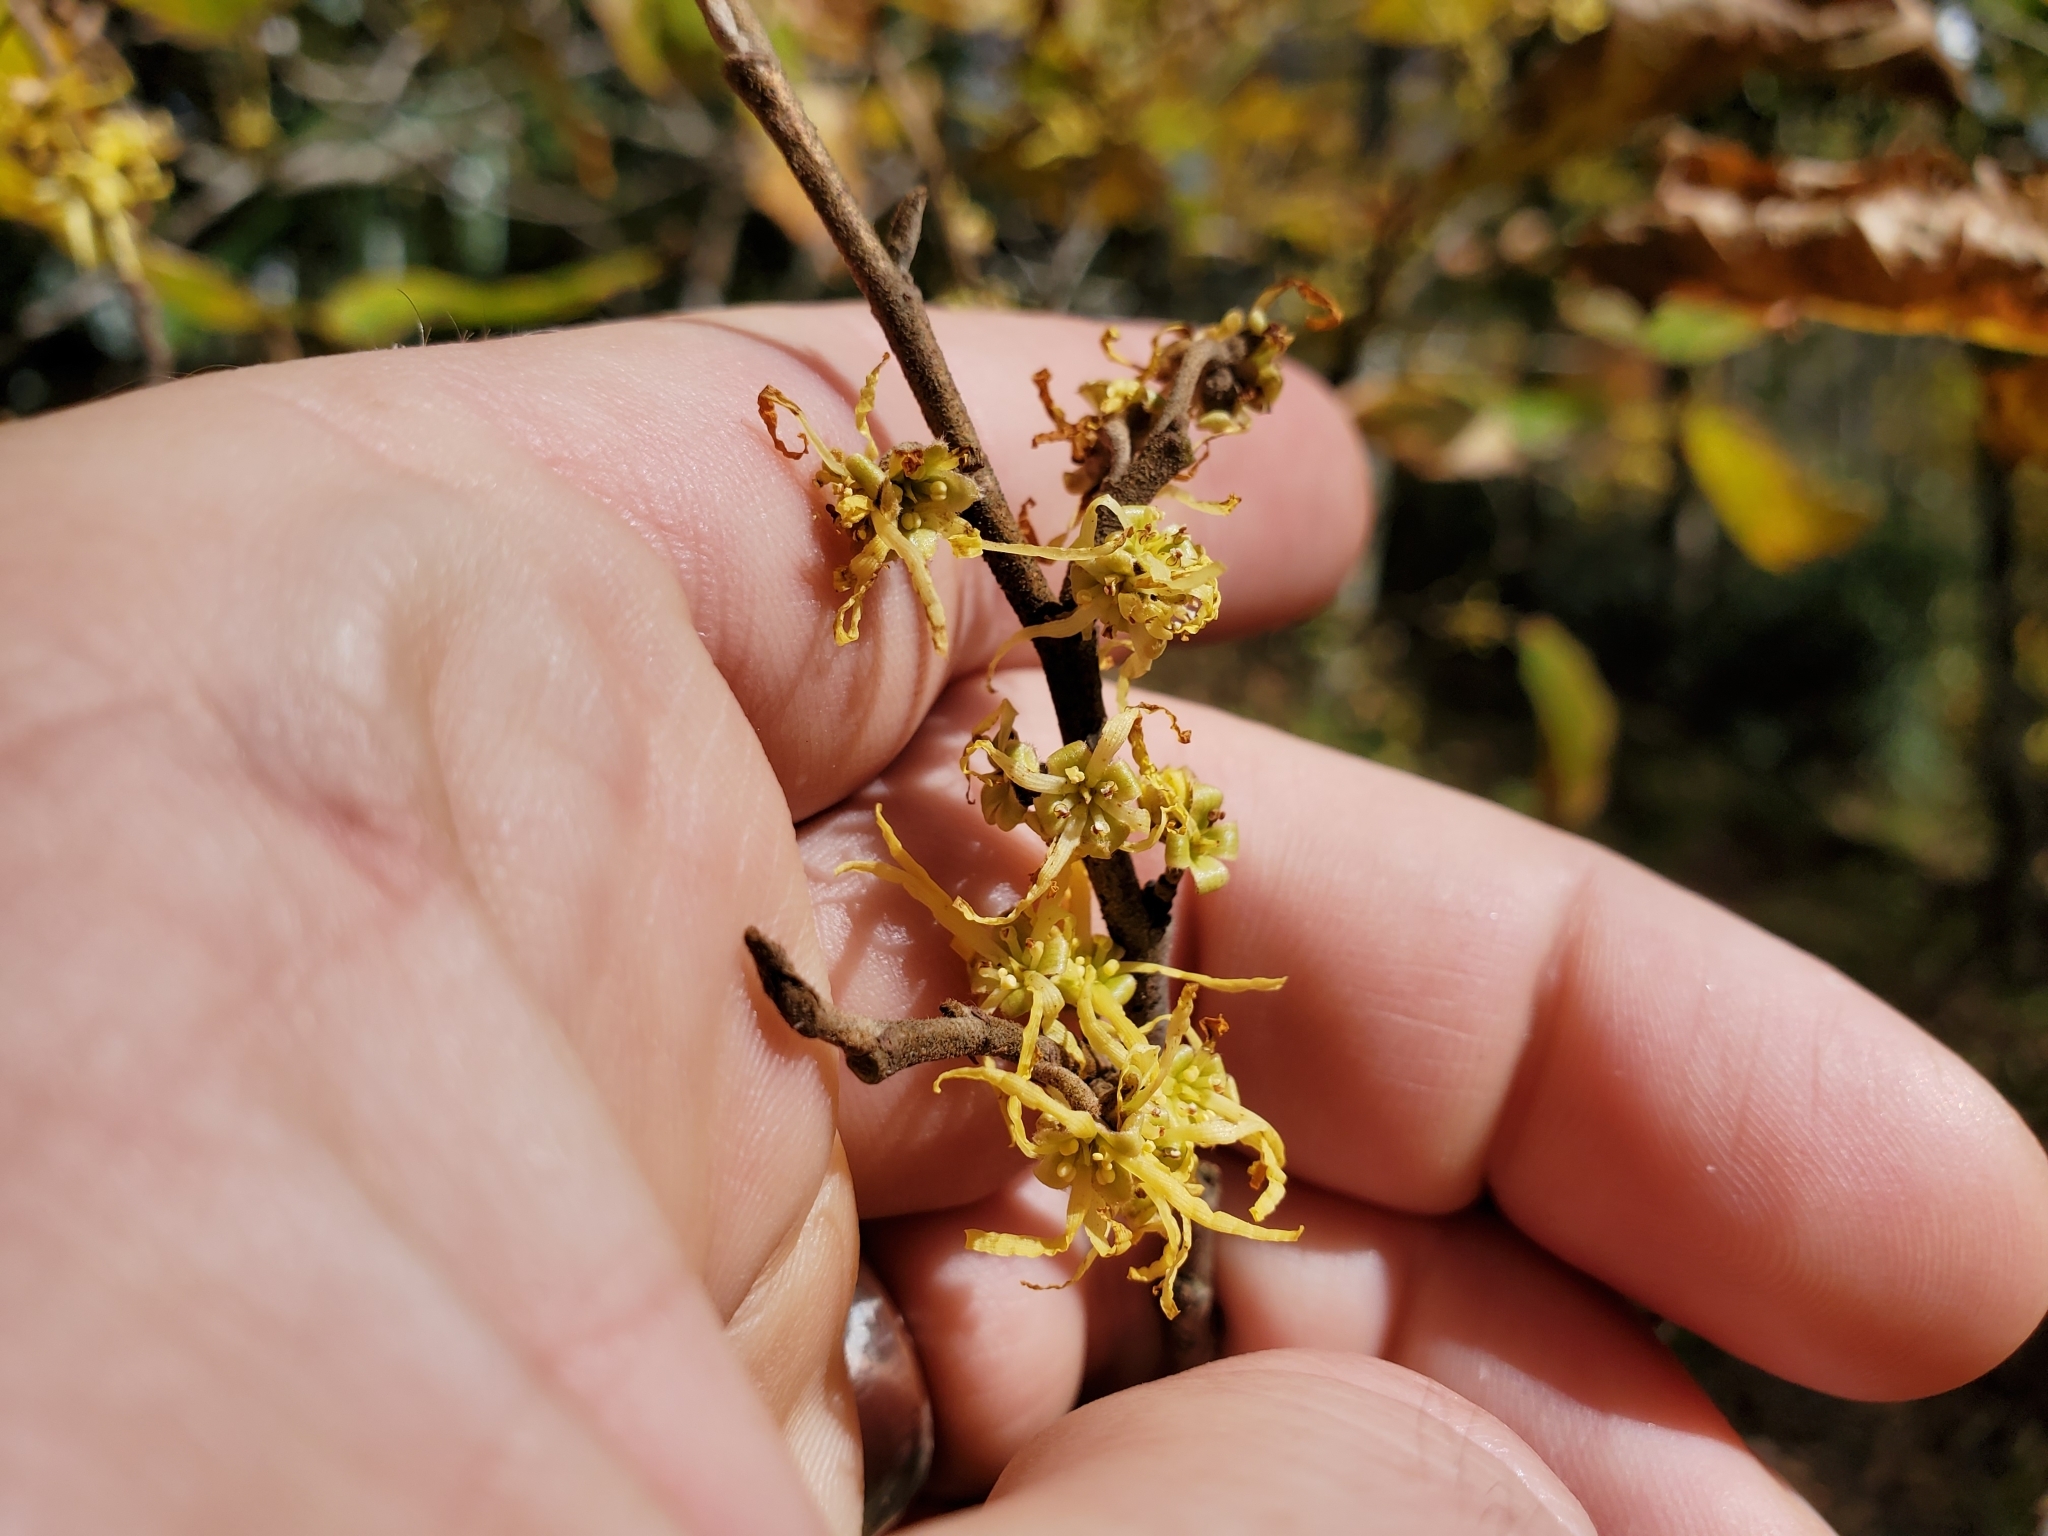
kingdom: Plantae
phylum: Tracheophyta
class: Magnoliopsida
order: Saxifragales
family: Hamamelidaceae
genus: Hamamelis
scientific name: Hamamelis virginiana
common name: Witch-hazel
